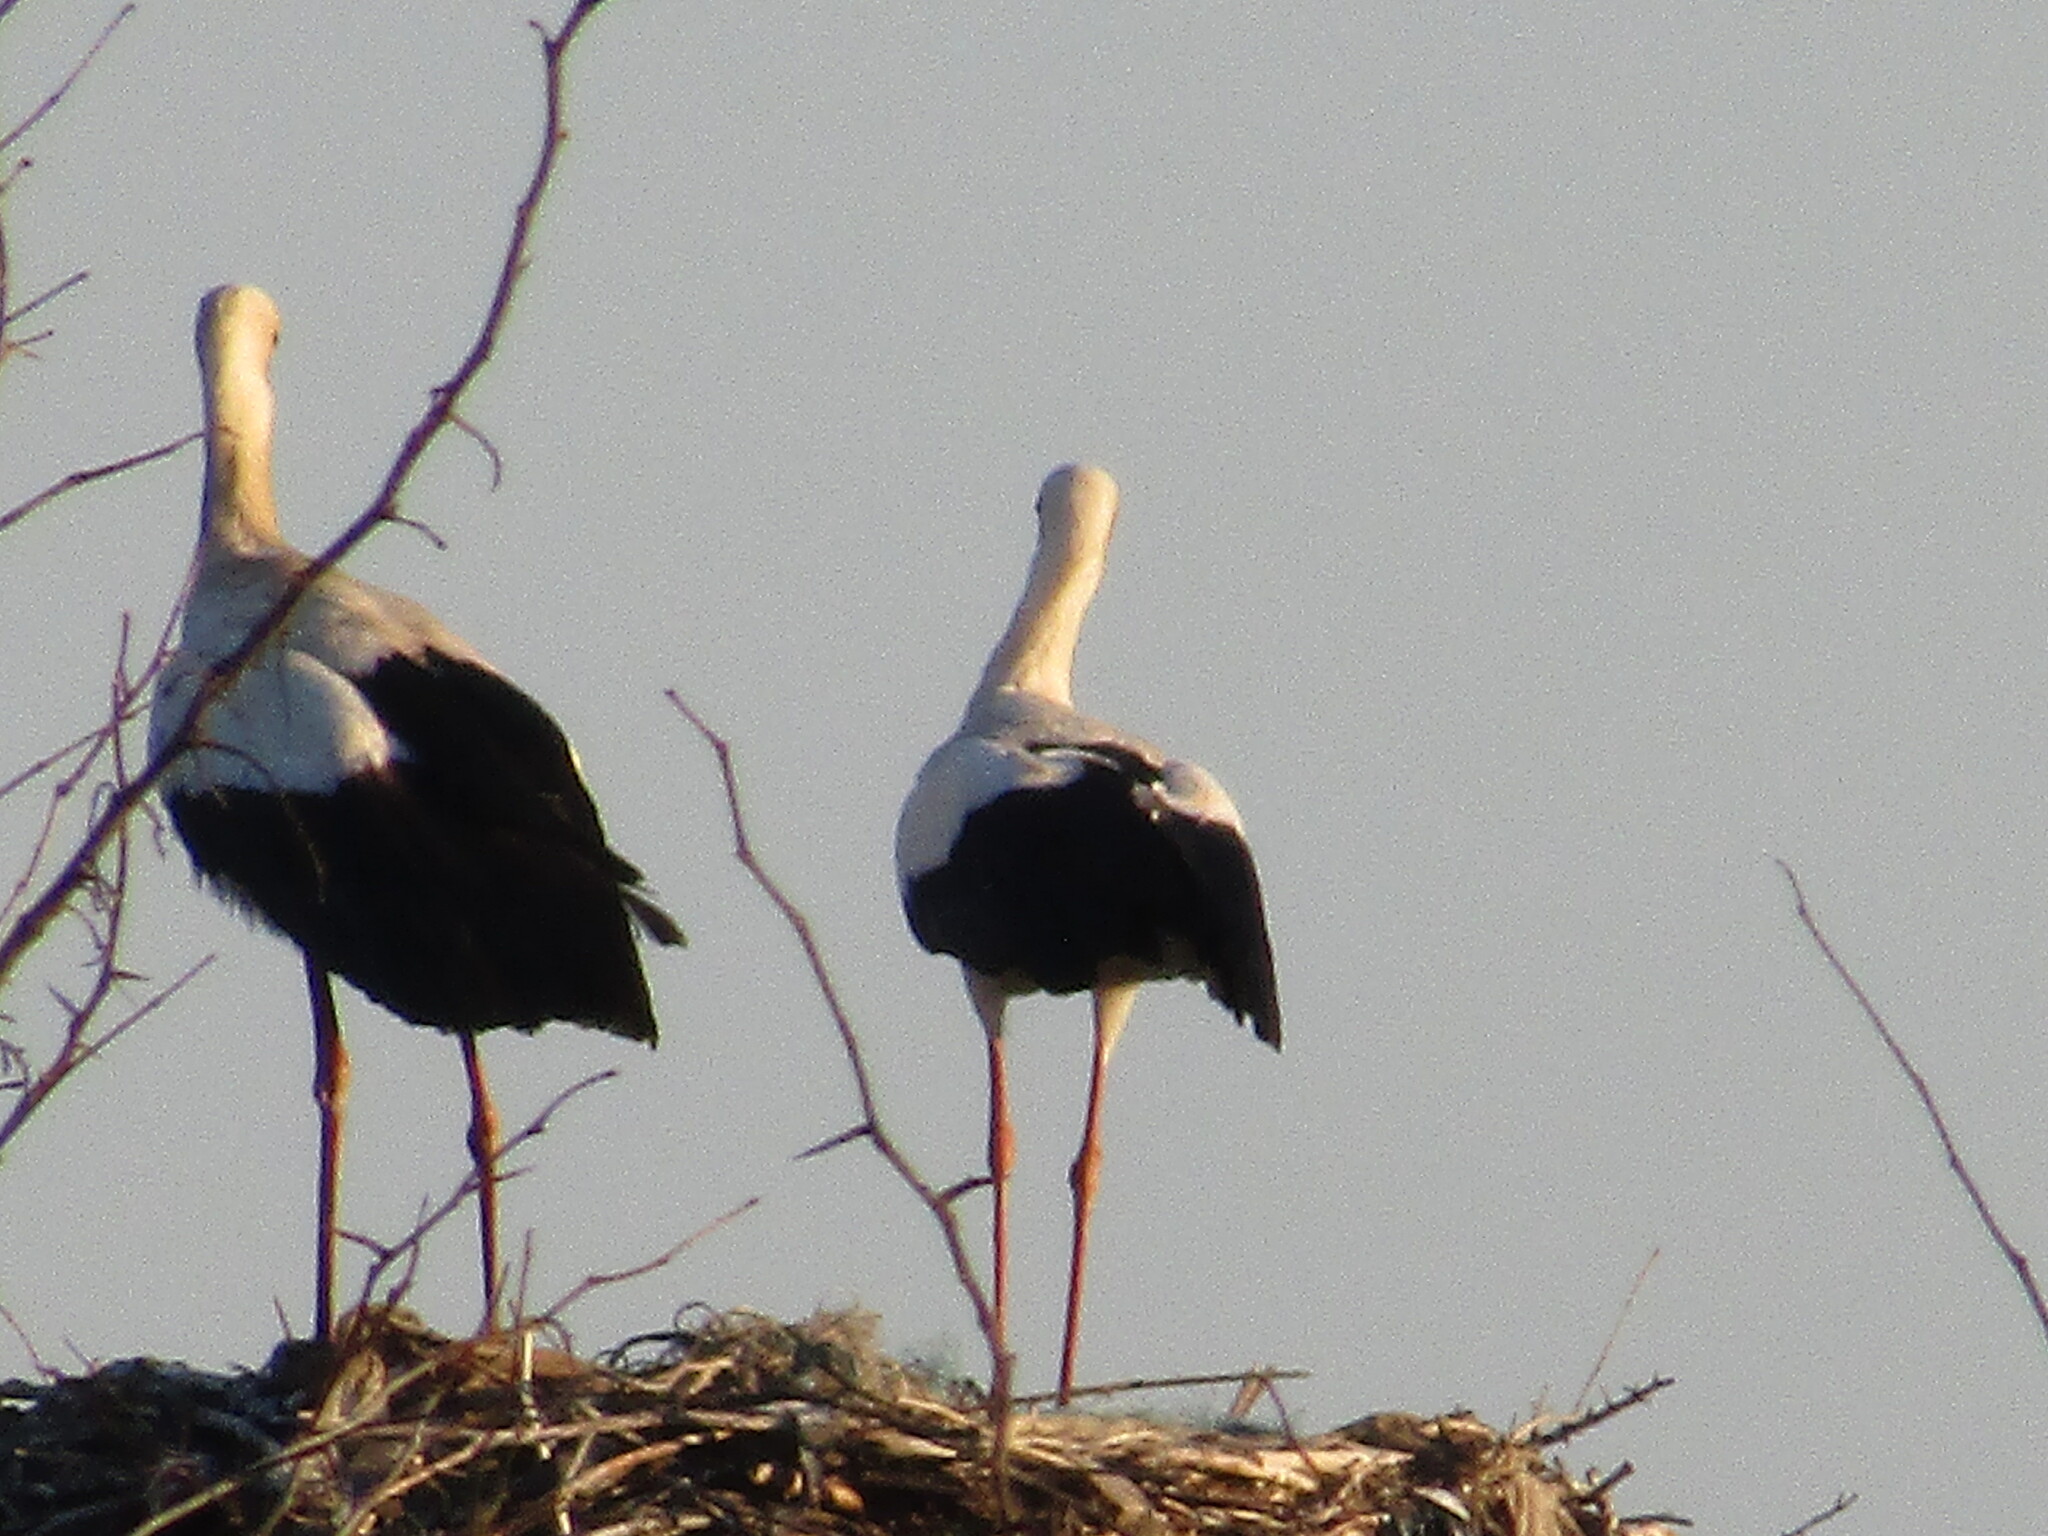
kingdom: Animalia
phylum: Chordata
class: Aves
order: Ciconiiformes
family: Ciconiidae
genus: Ciconia
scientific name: Ciconia ciconia
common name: White stork
